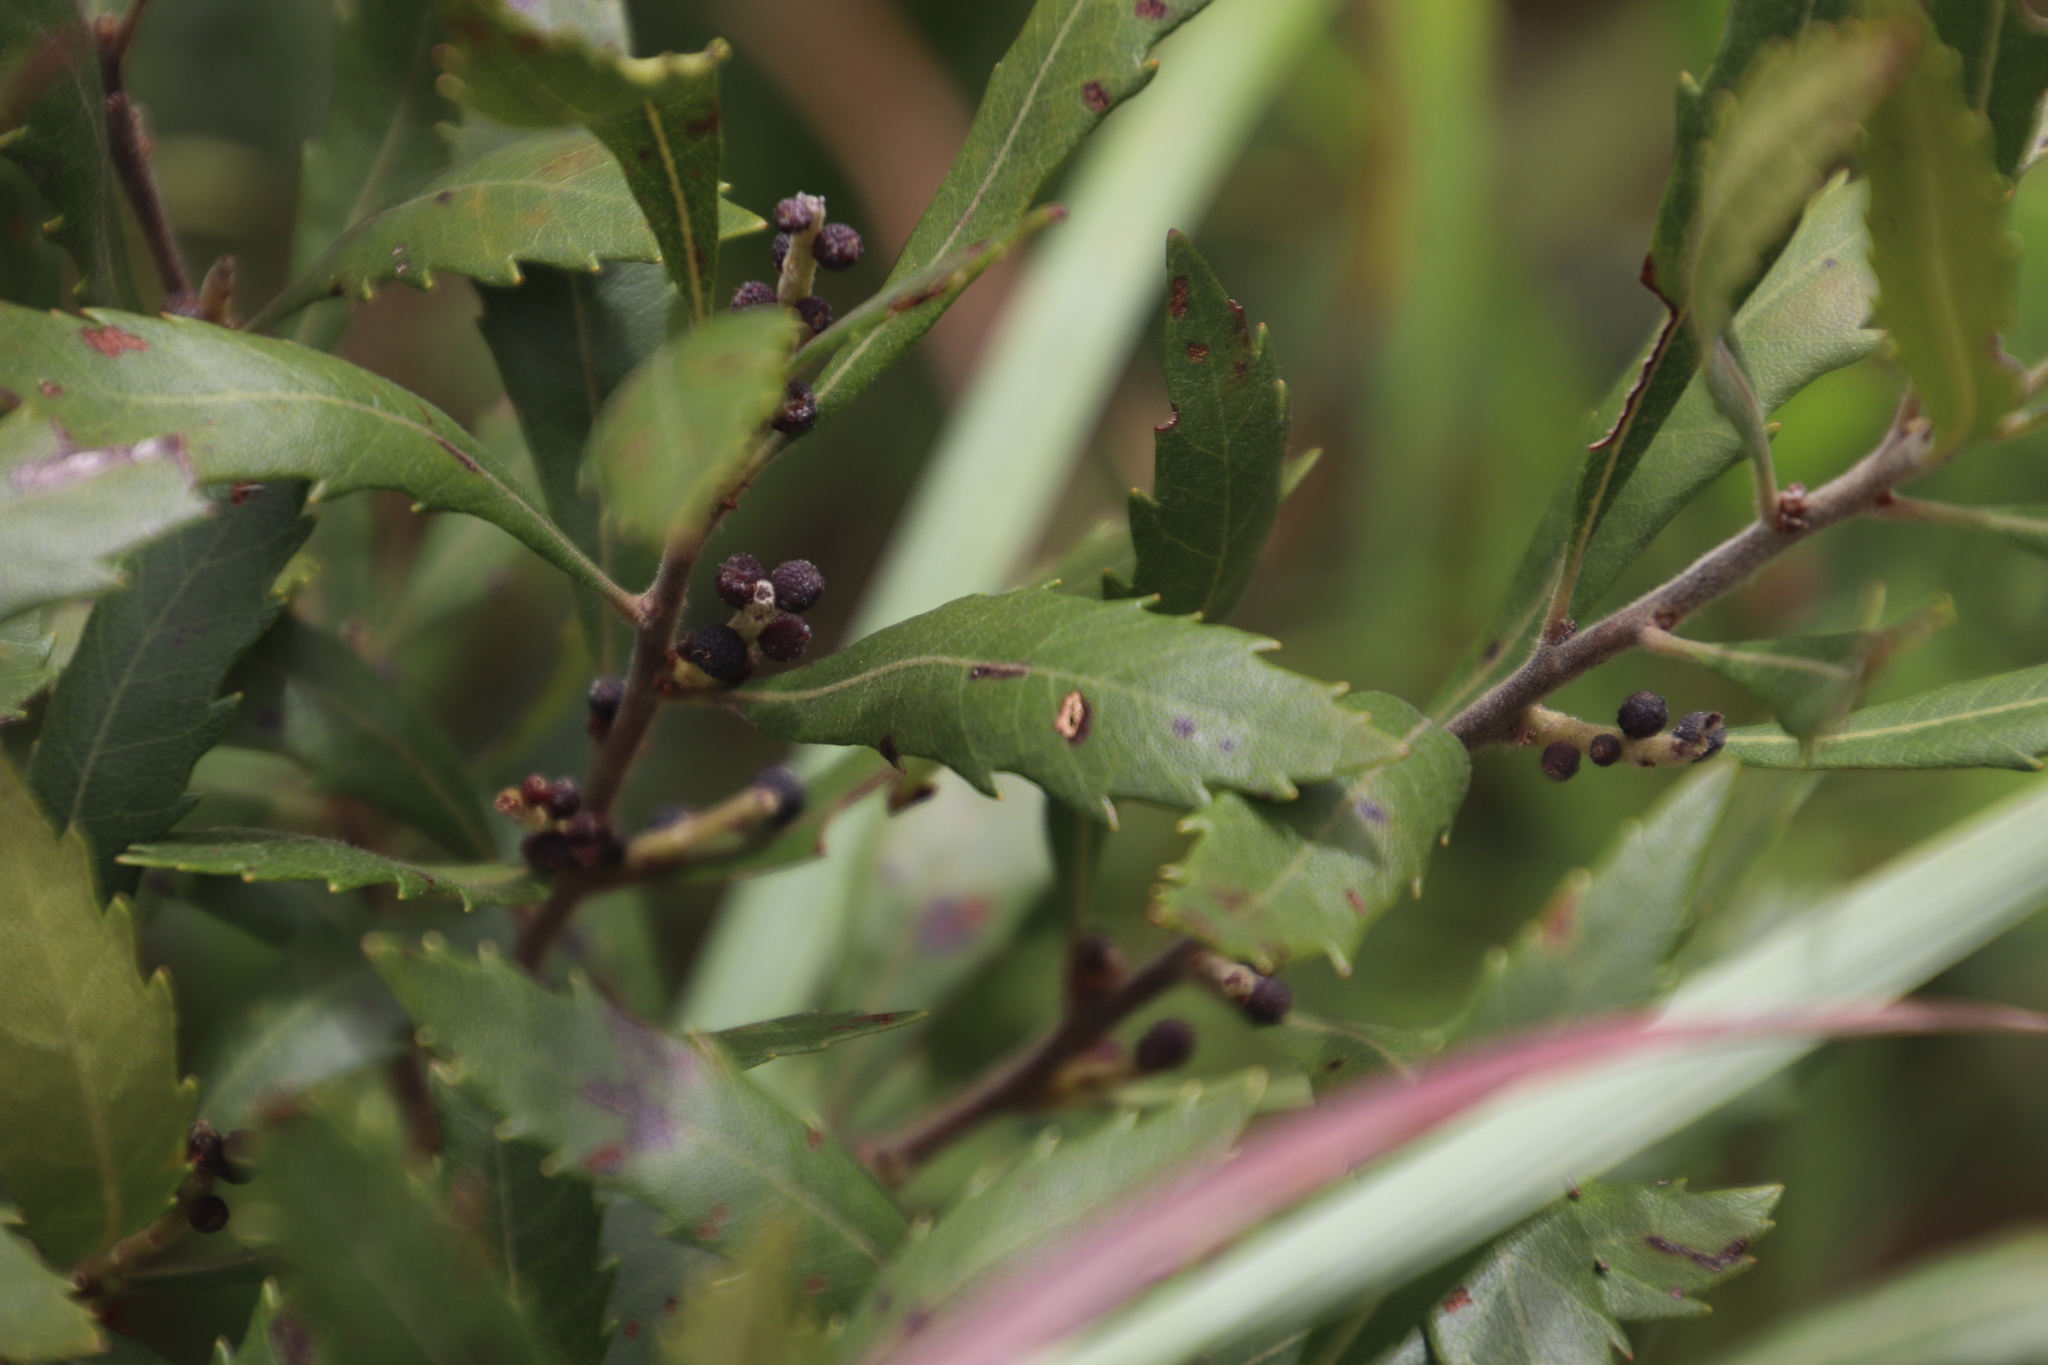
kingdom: Plantae
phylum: Tracheophyta
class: Magnoliopsida
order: Fagales
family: Myricaceae
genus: Morella
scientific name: Morella serrata
